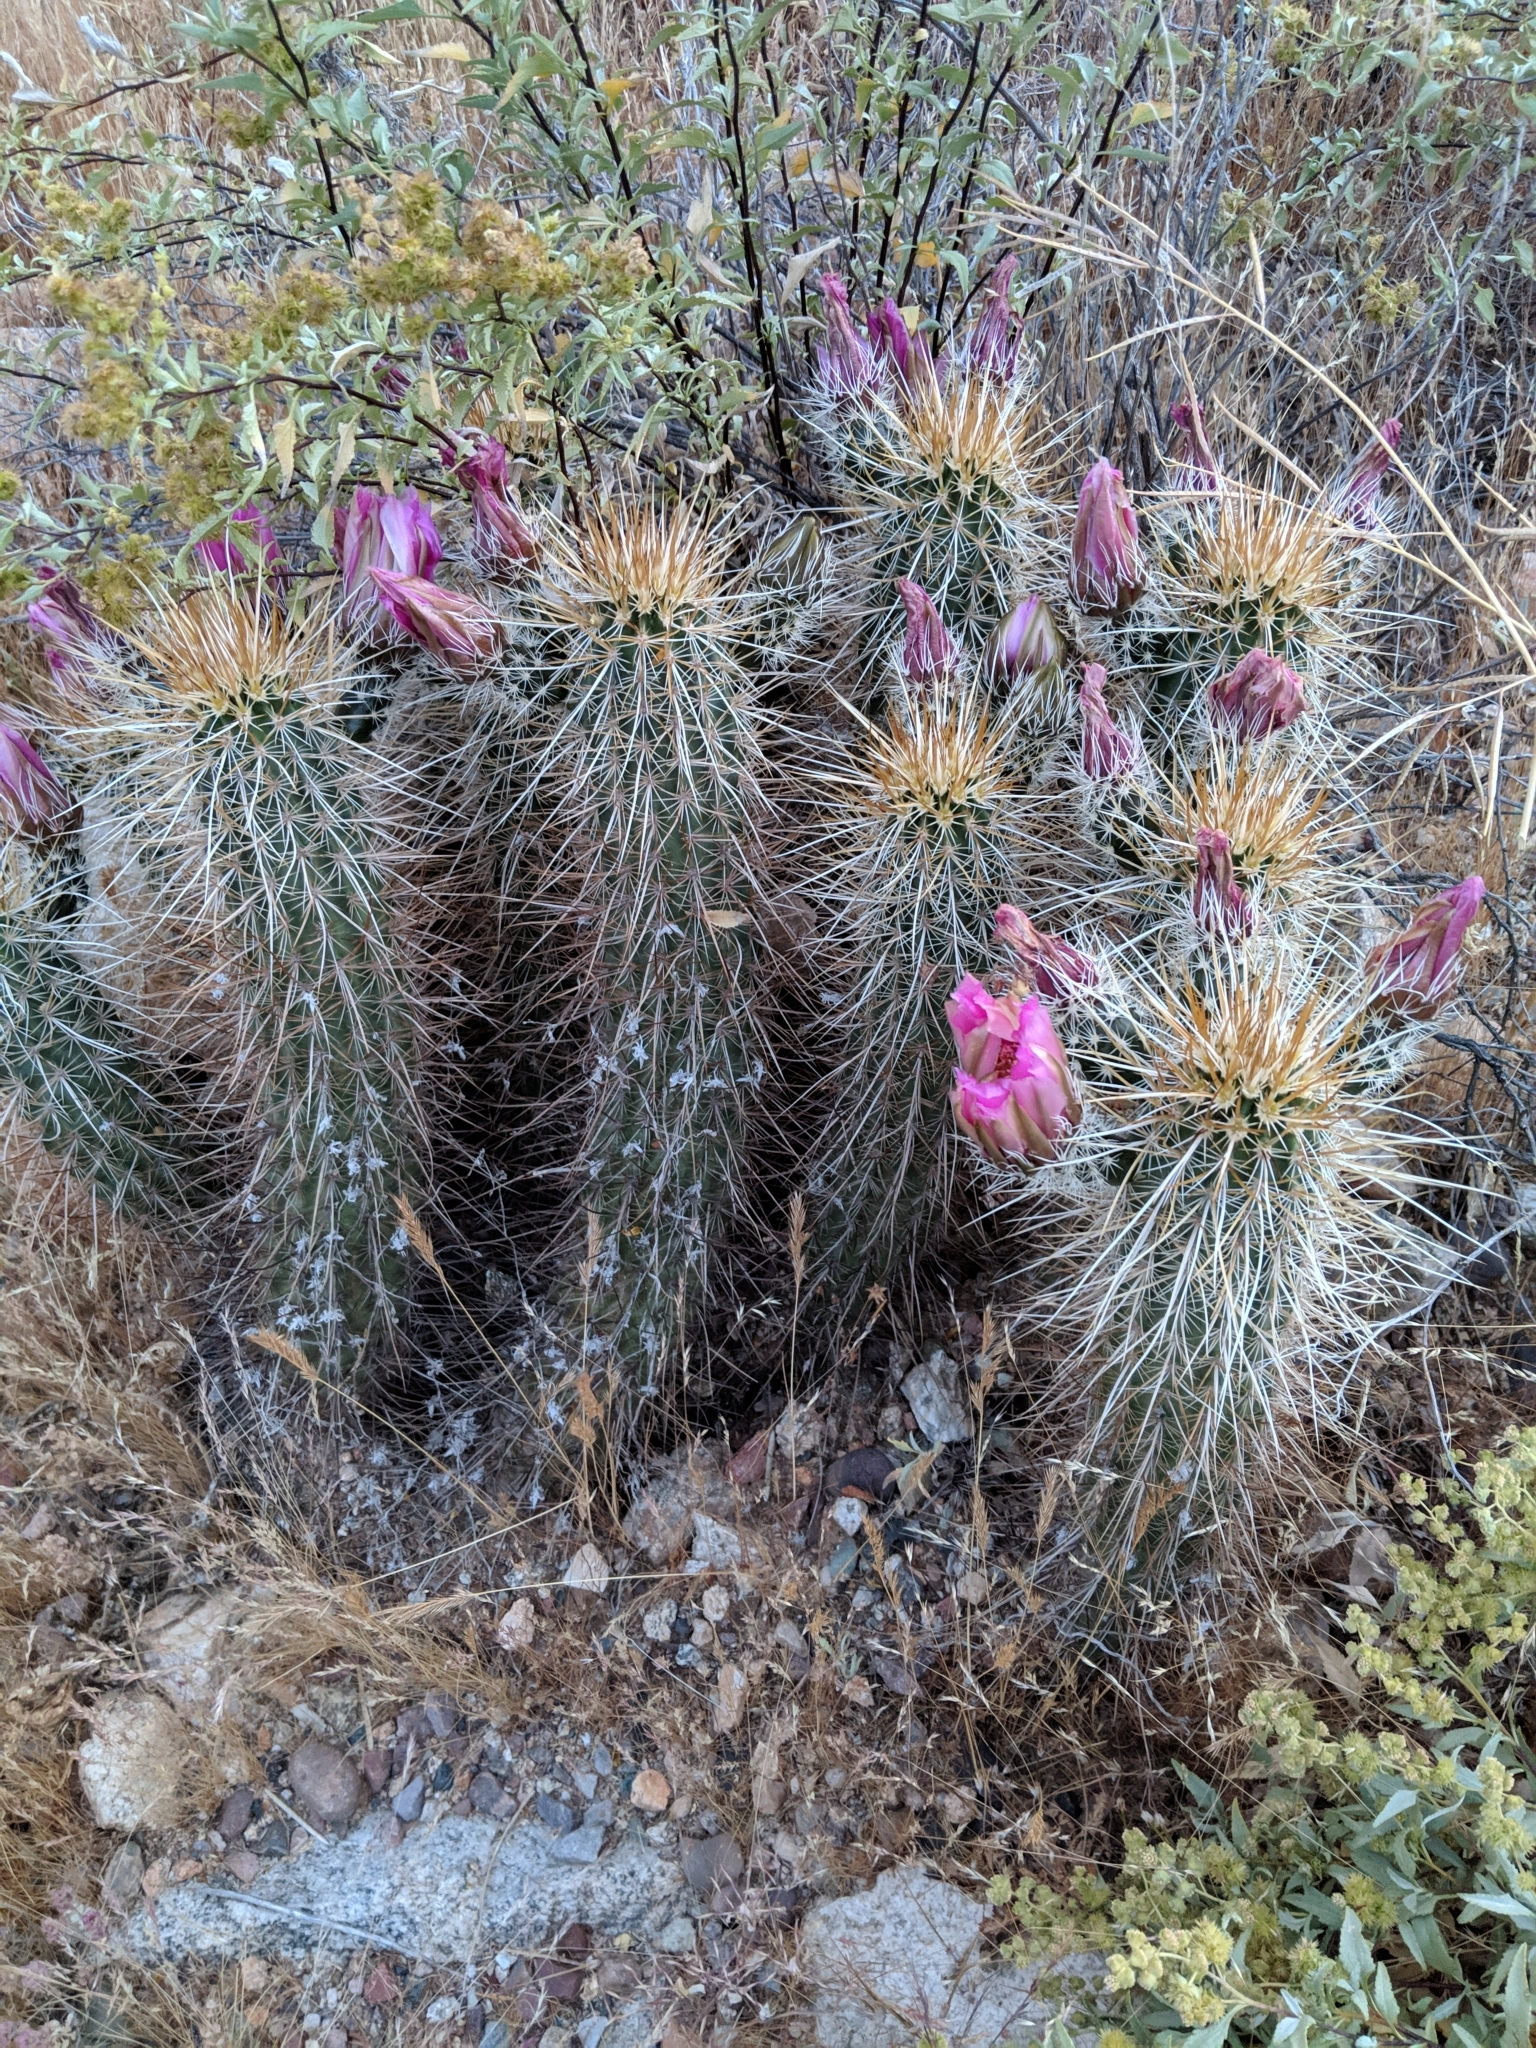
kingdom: Plantae
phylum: Tracheophyta
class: Magnoliopsida
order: Caryophyllales
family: Cactaceae
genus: Echinocereus
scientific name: Echinocereus engelmannii
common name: Engelmann's hedgehog cactus
